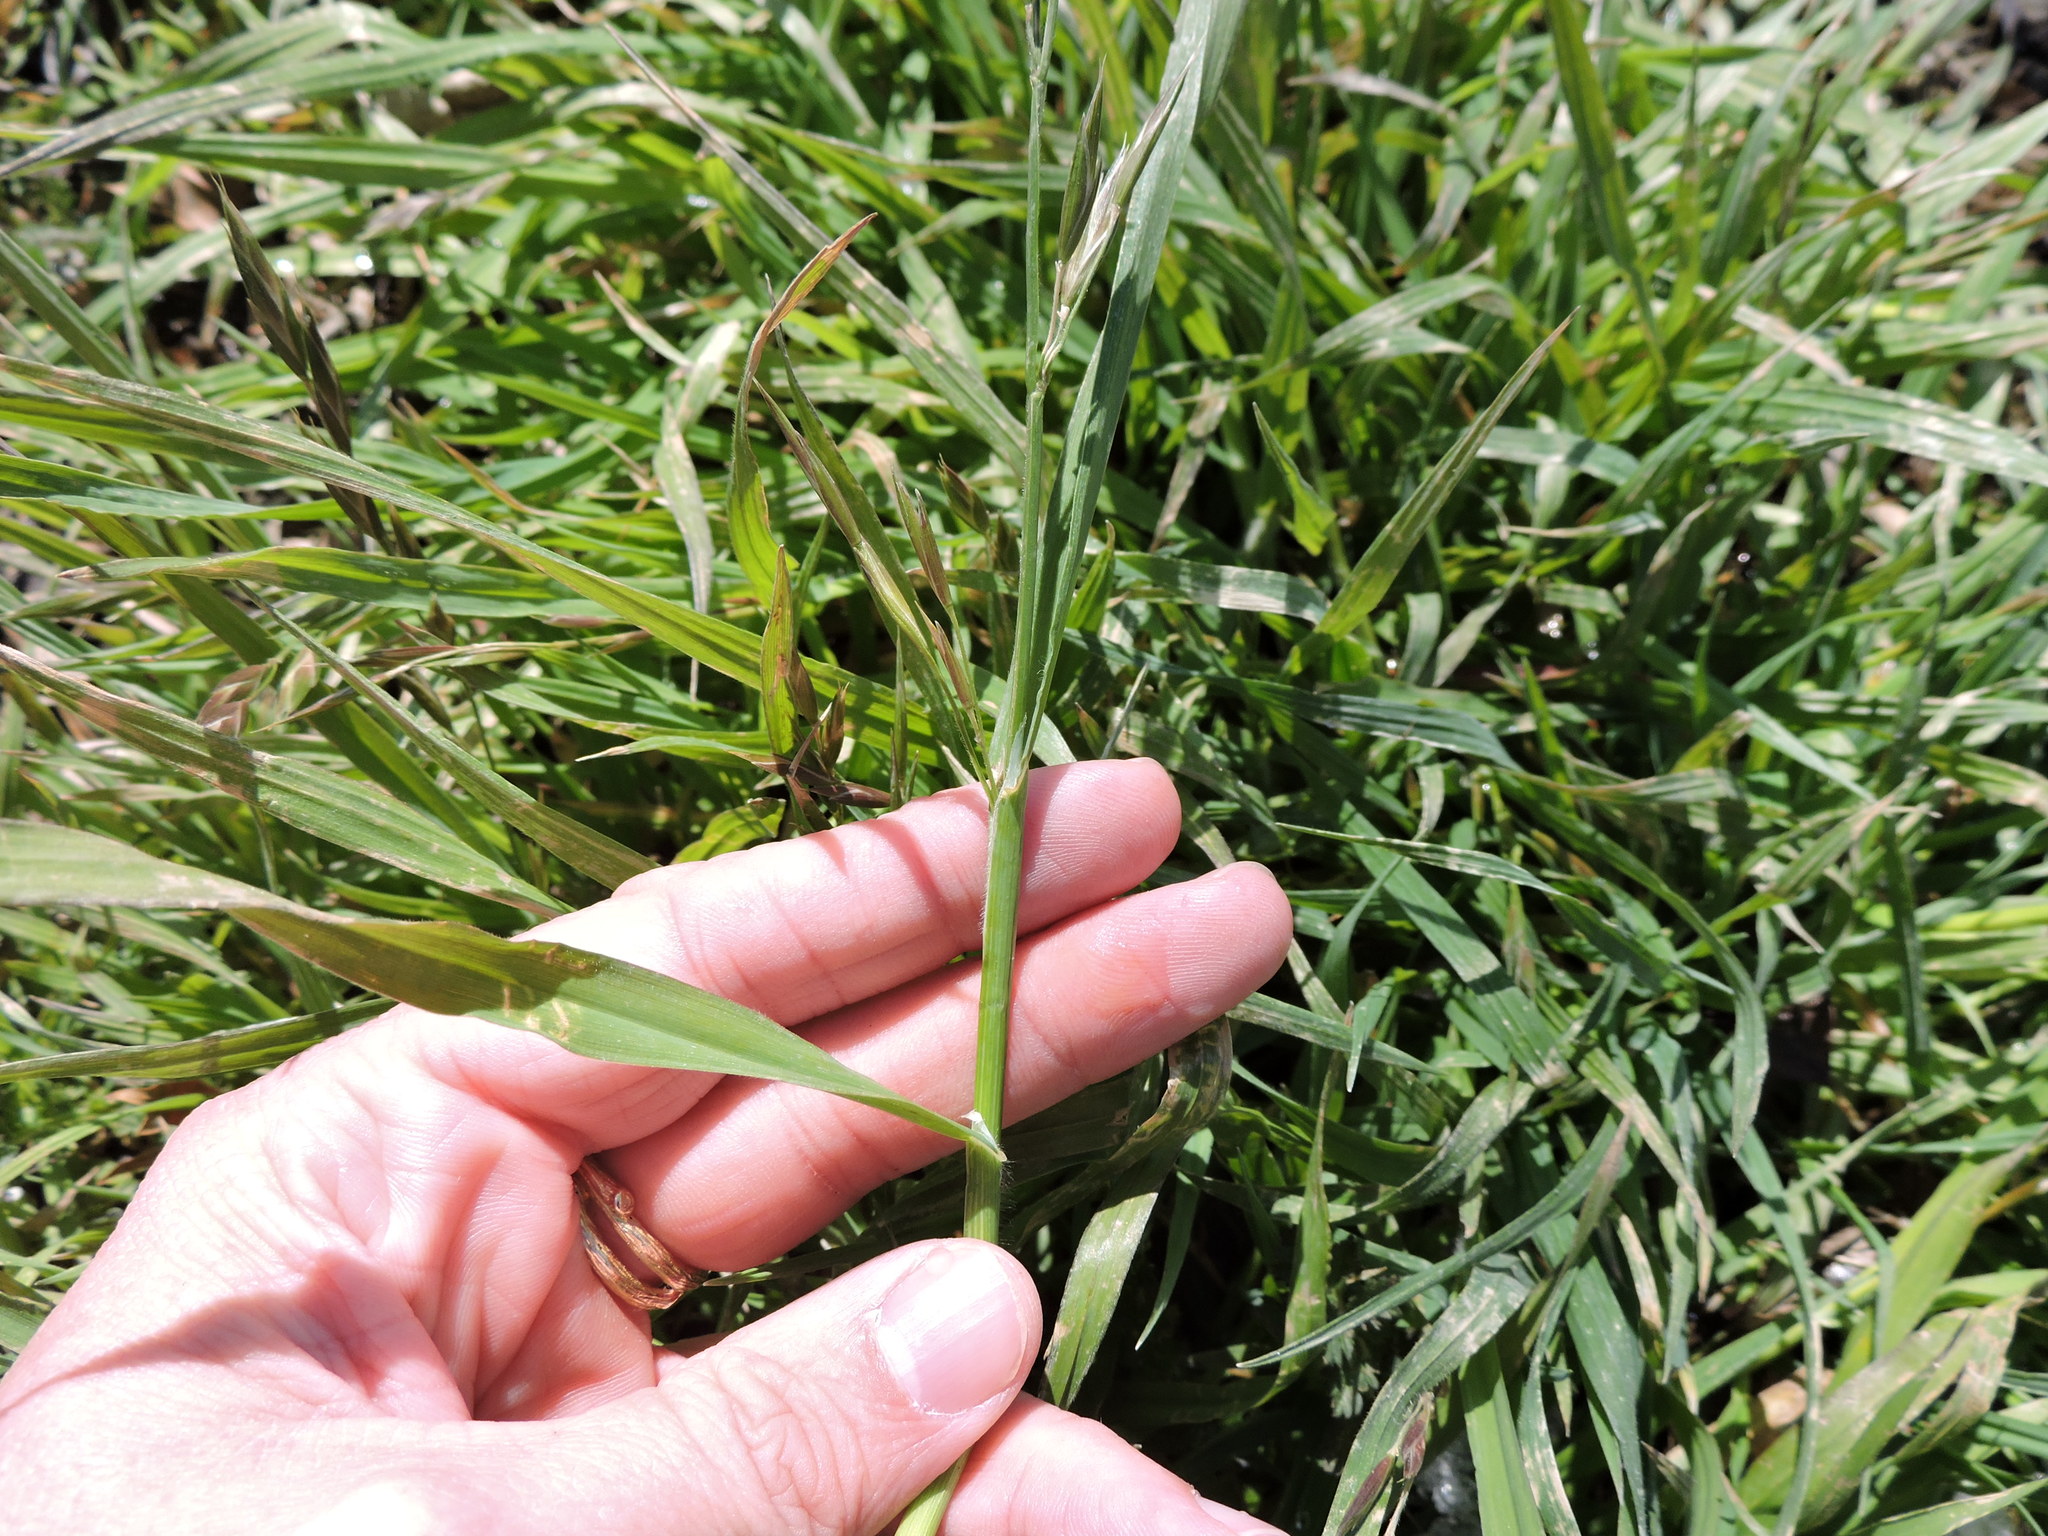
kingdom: Plantae
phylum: Tracheophyta
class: Liliopsida
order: Poales
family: Poaceae
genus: Bromus
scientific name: Bromus catharticus
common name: Rescuegrass
